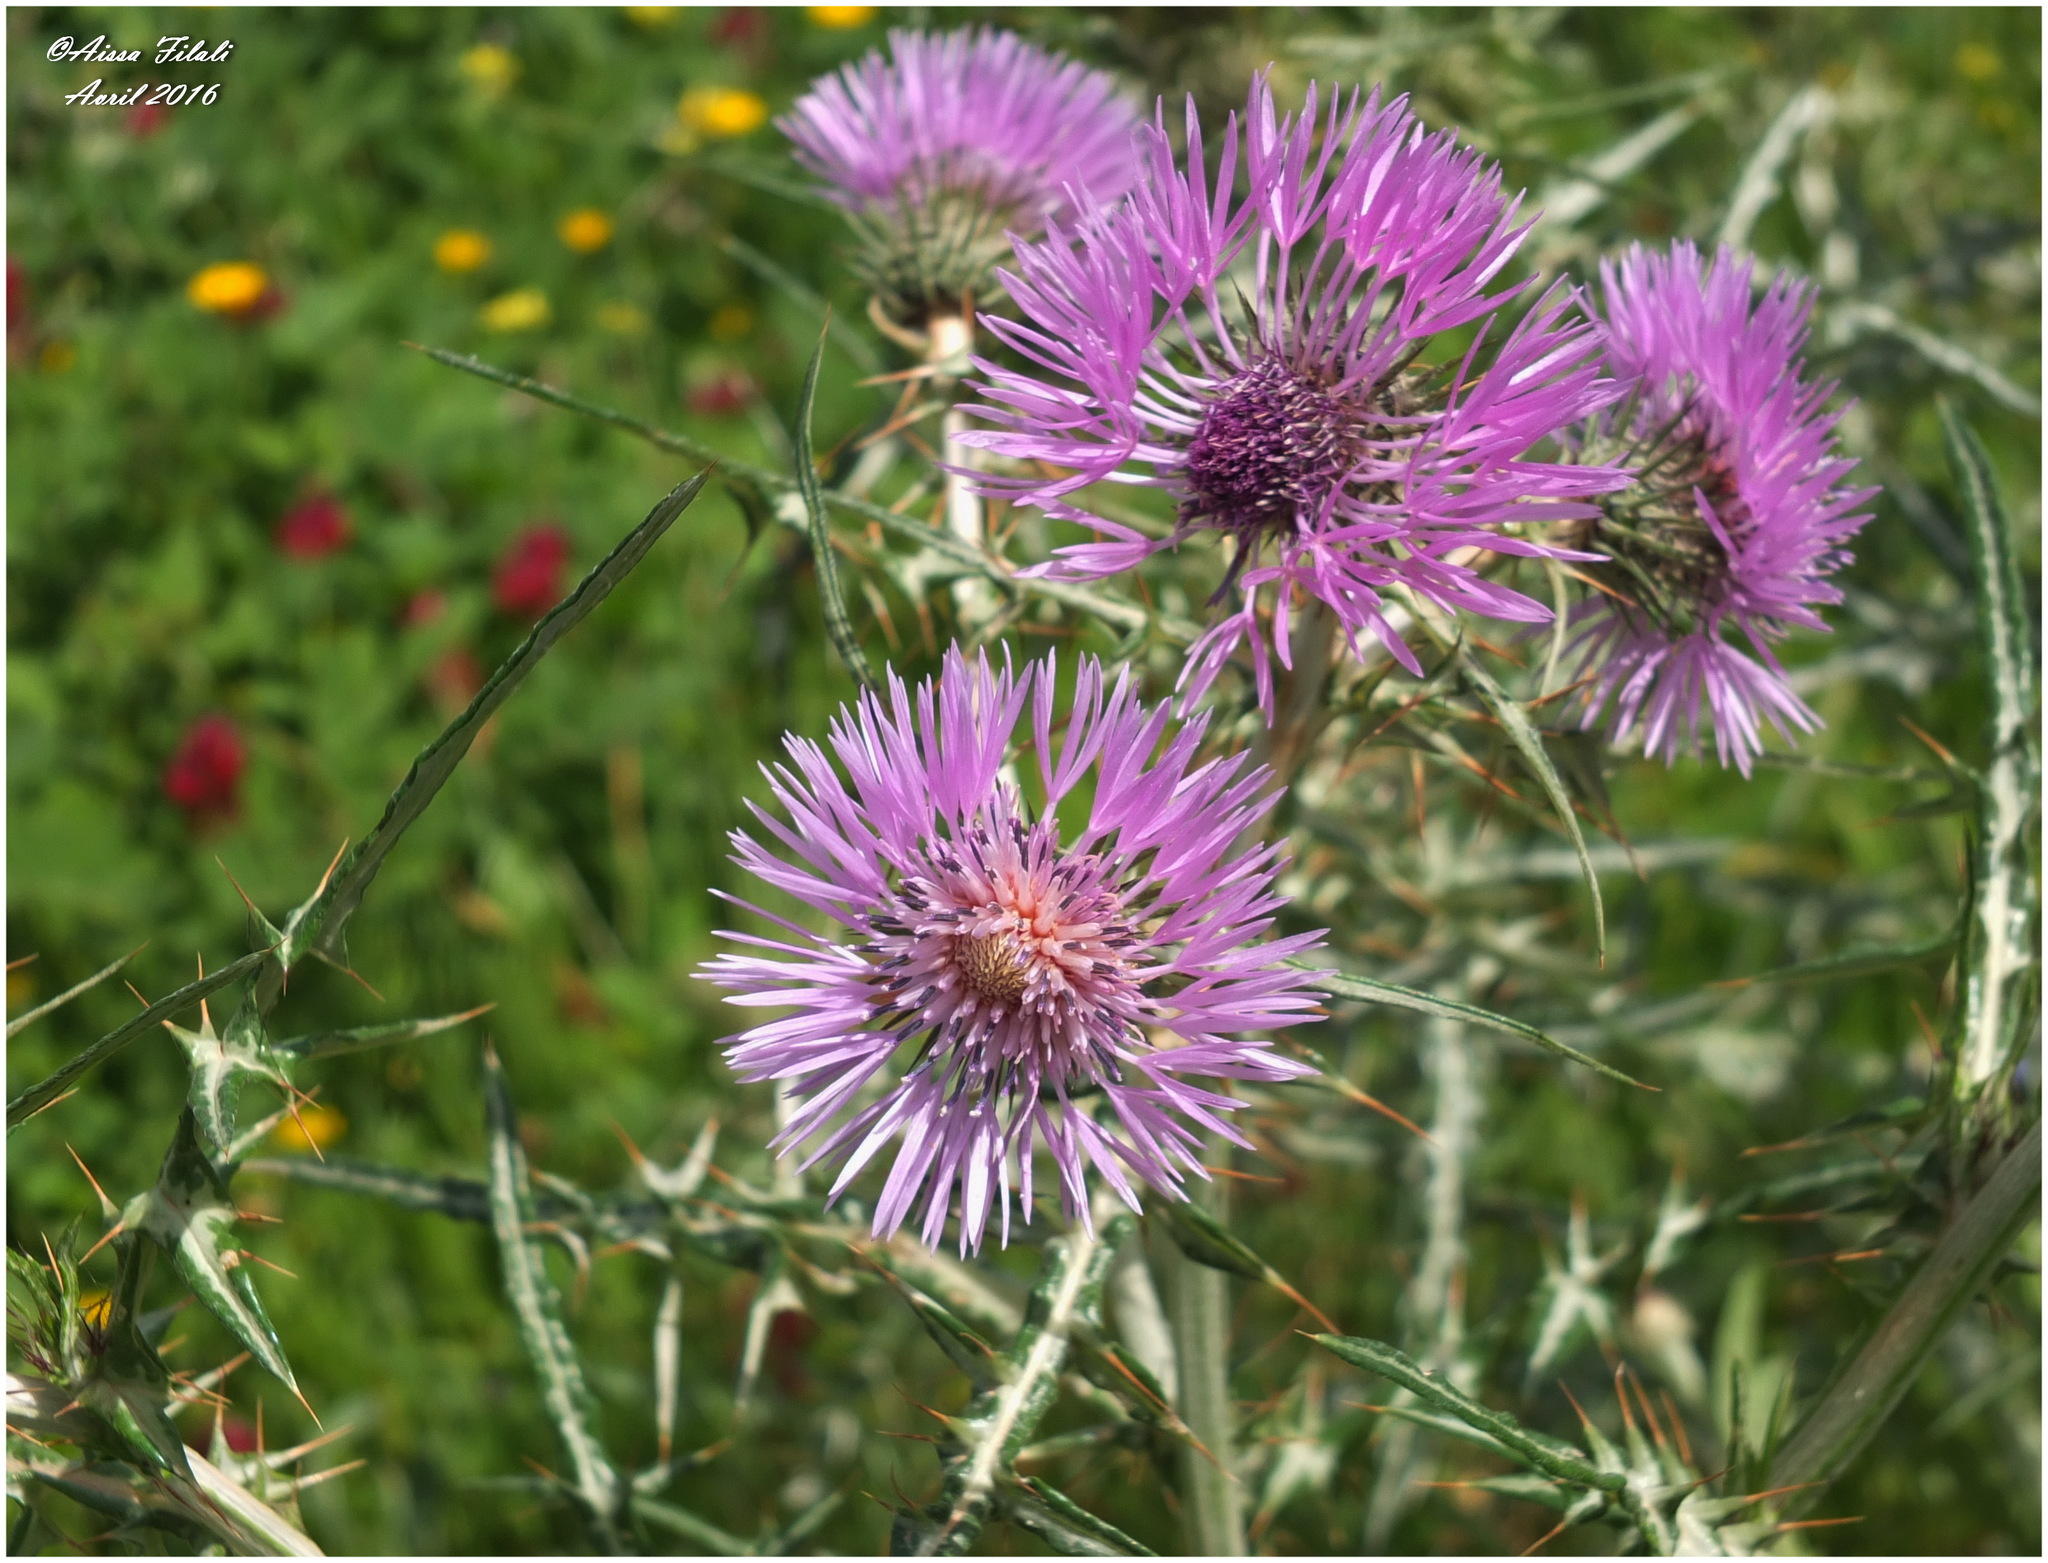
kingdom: Plantae
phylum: Tracheophyta
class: Magnoliopsida
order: Asterales
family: Asteraceae
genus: Galactites
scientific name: Galactites tomentosa
